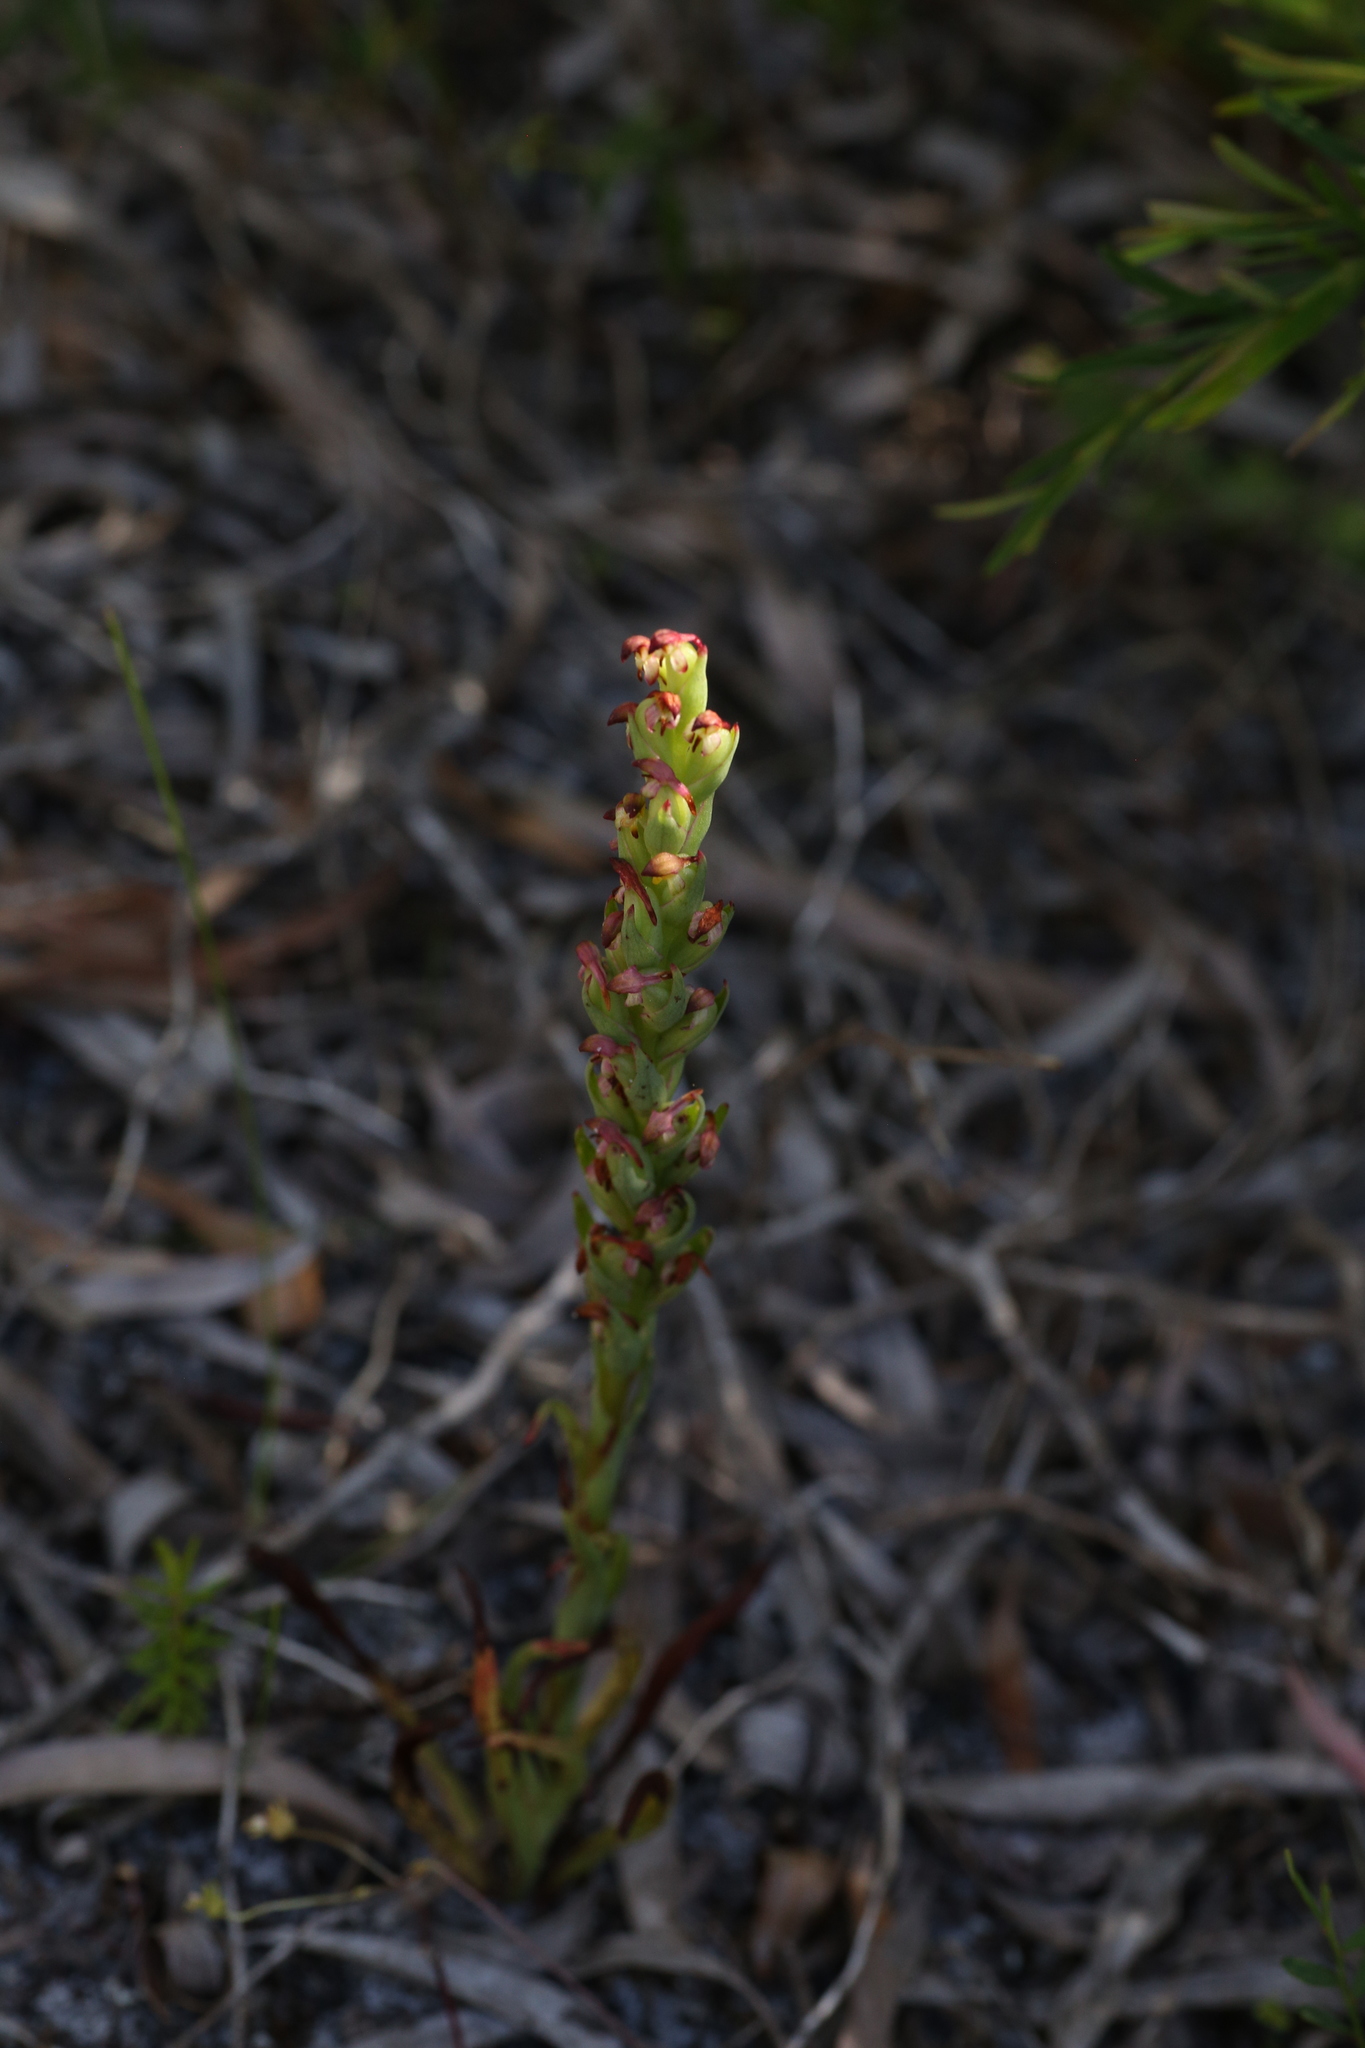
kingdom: Plantae
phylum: Tracheophyta
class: Liliopsida
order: Asparagales
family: Orchidaceae
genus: Disa
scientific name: Disa bracteata
